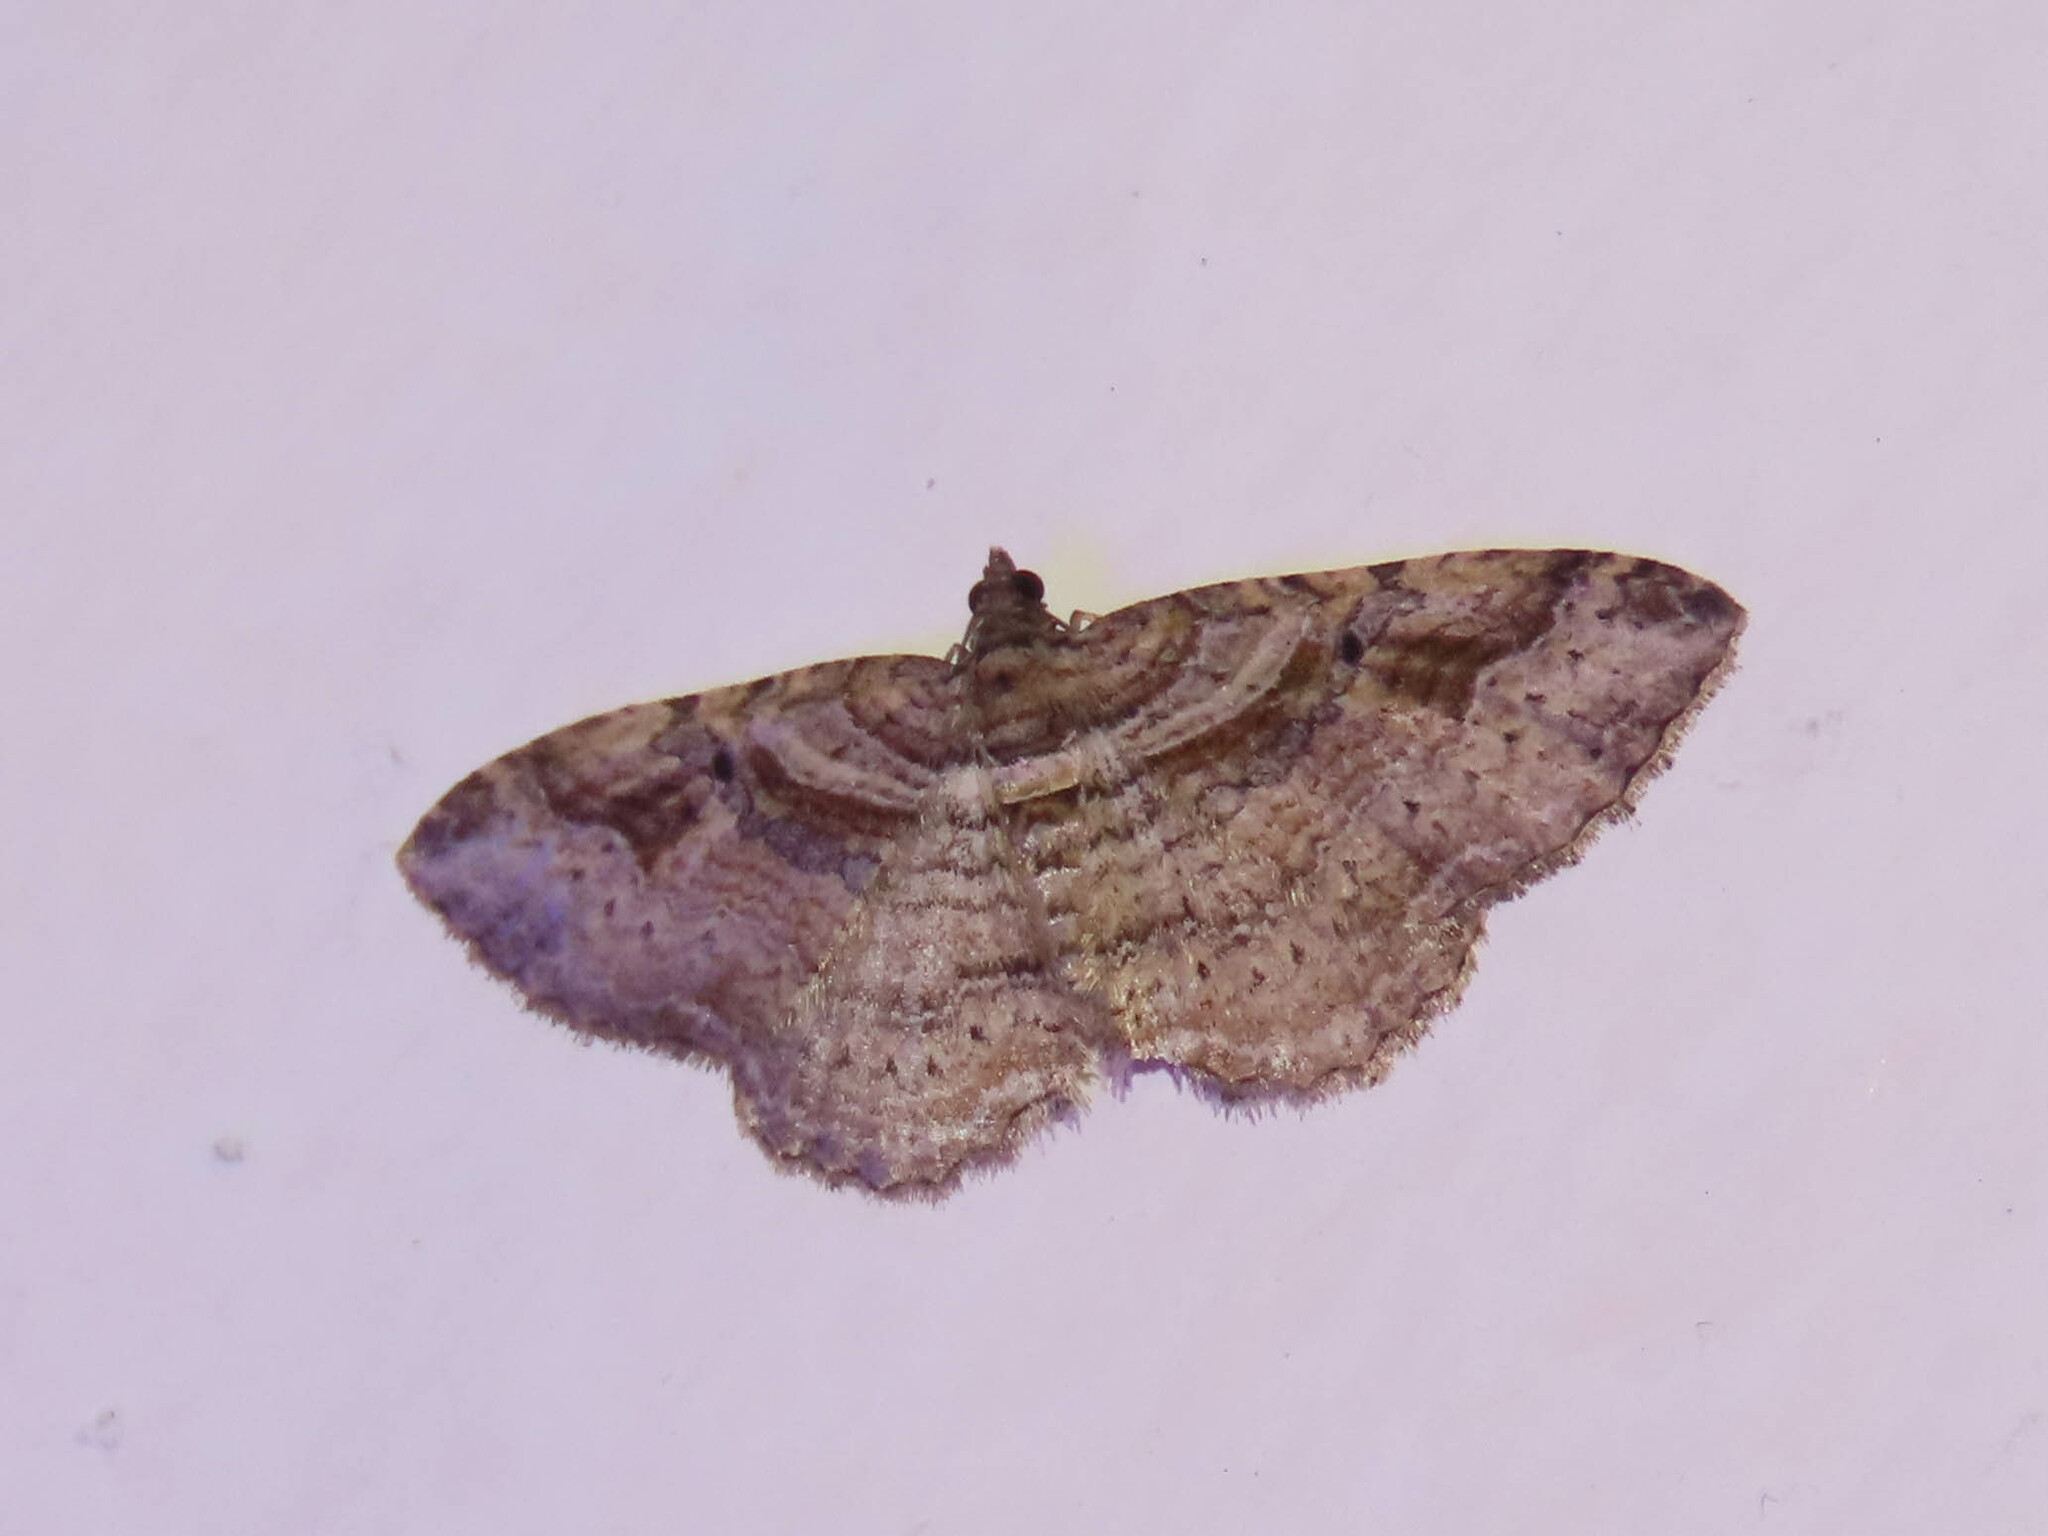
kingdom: Animalia
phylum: Arthropoda
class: Insecta
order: Lepidoptera
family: Geometridae
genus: Costaconvexa
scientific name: Costaconvexa centrostrigaria
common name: Bent-line carpet
